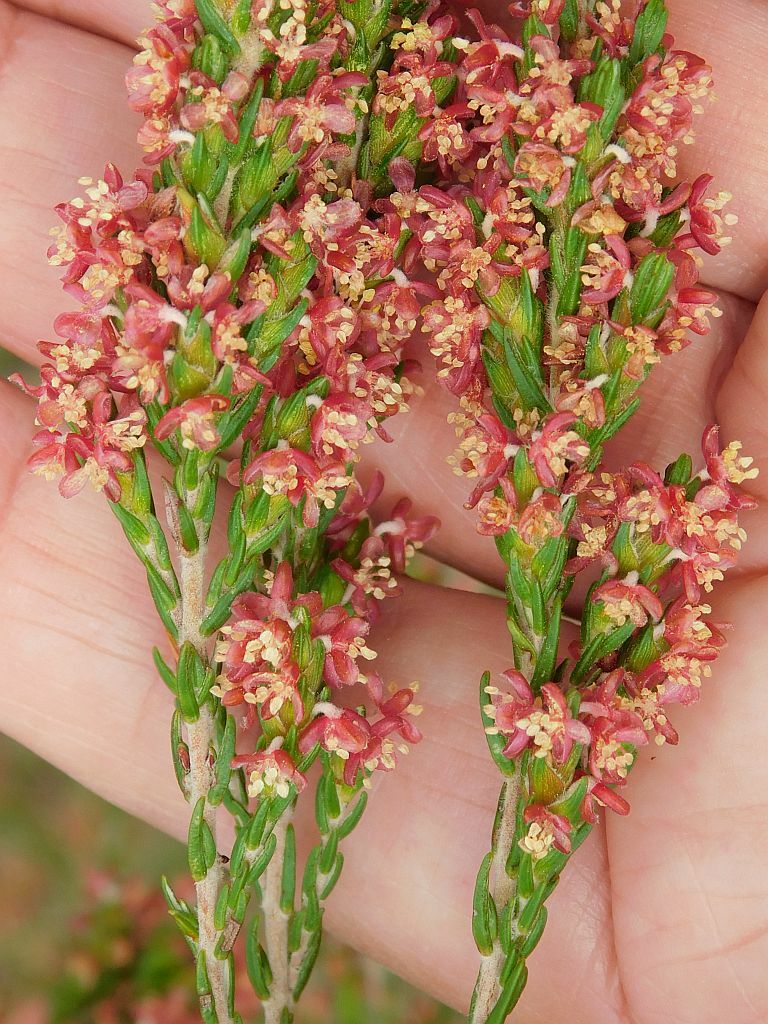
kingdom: Plantae
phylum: Tracheophyta
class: Magnoliopsida
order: Malvales
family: Thymelaeaceae
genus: Passerina
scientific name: Passerina corymbosa
